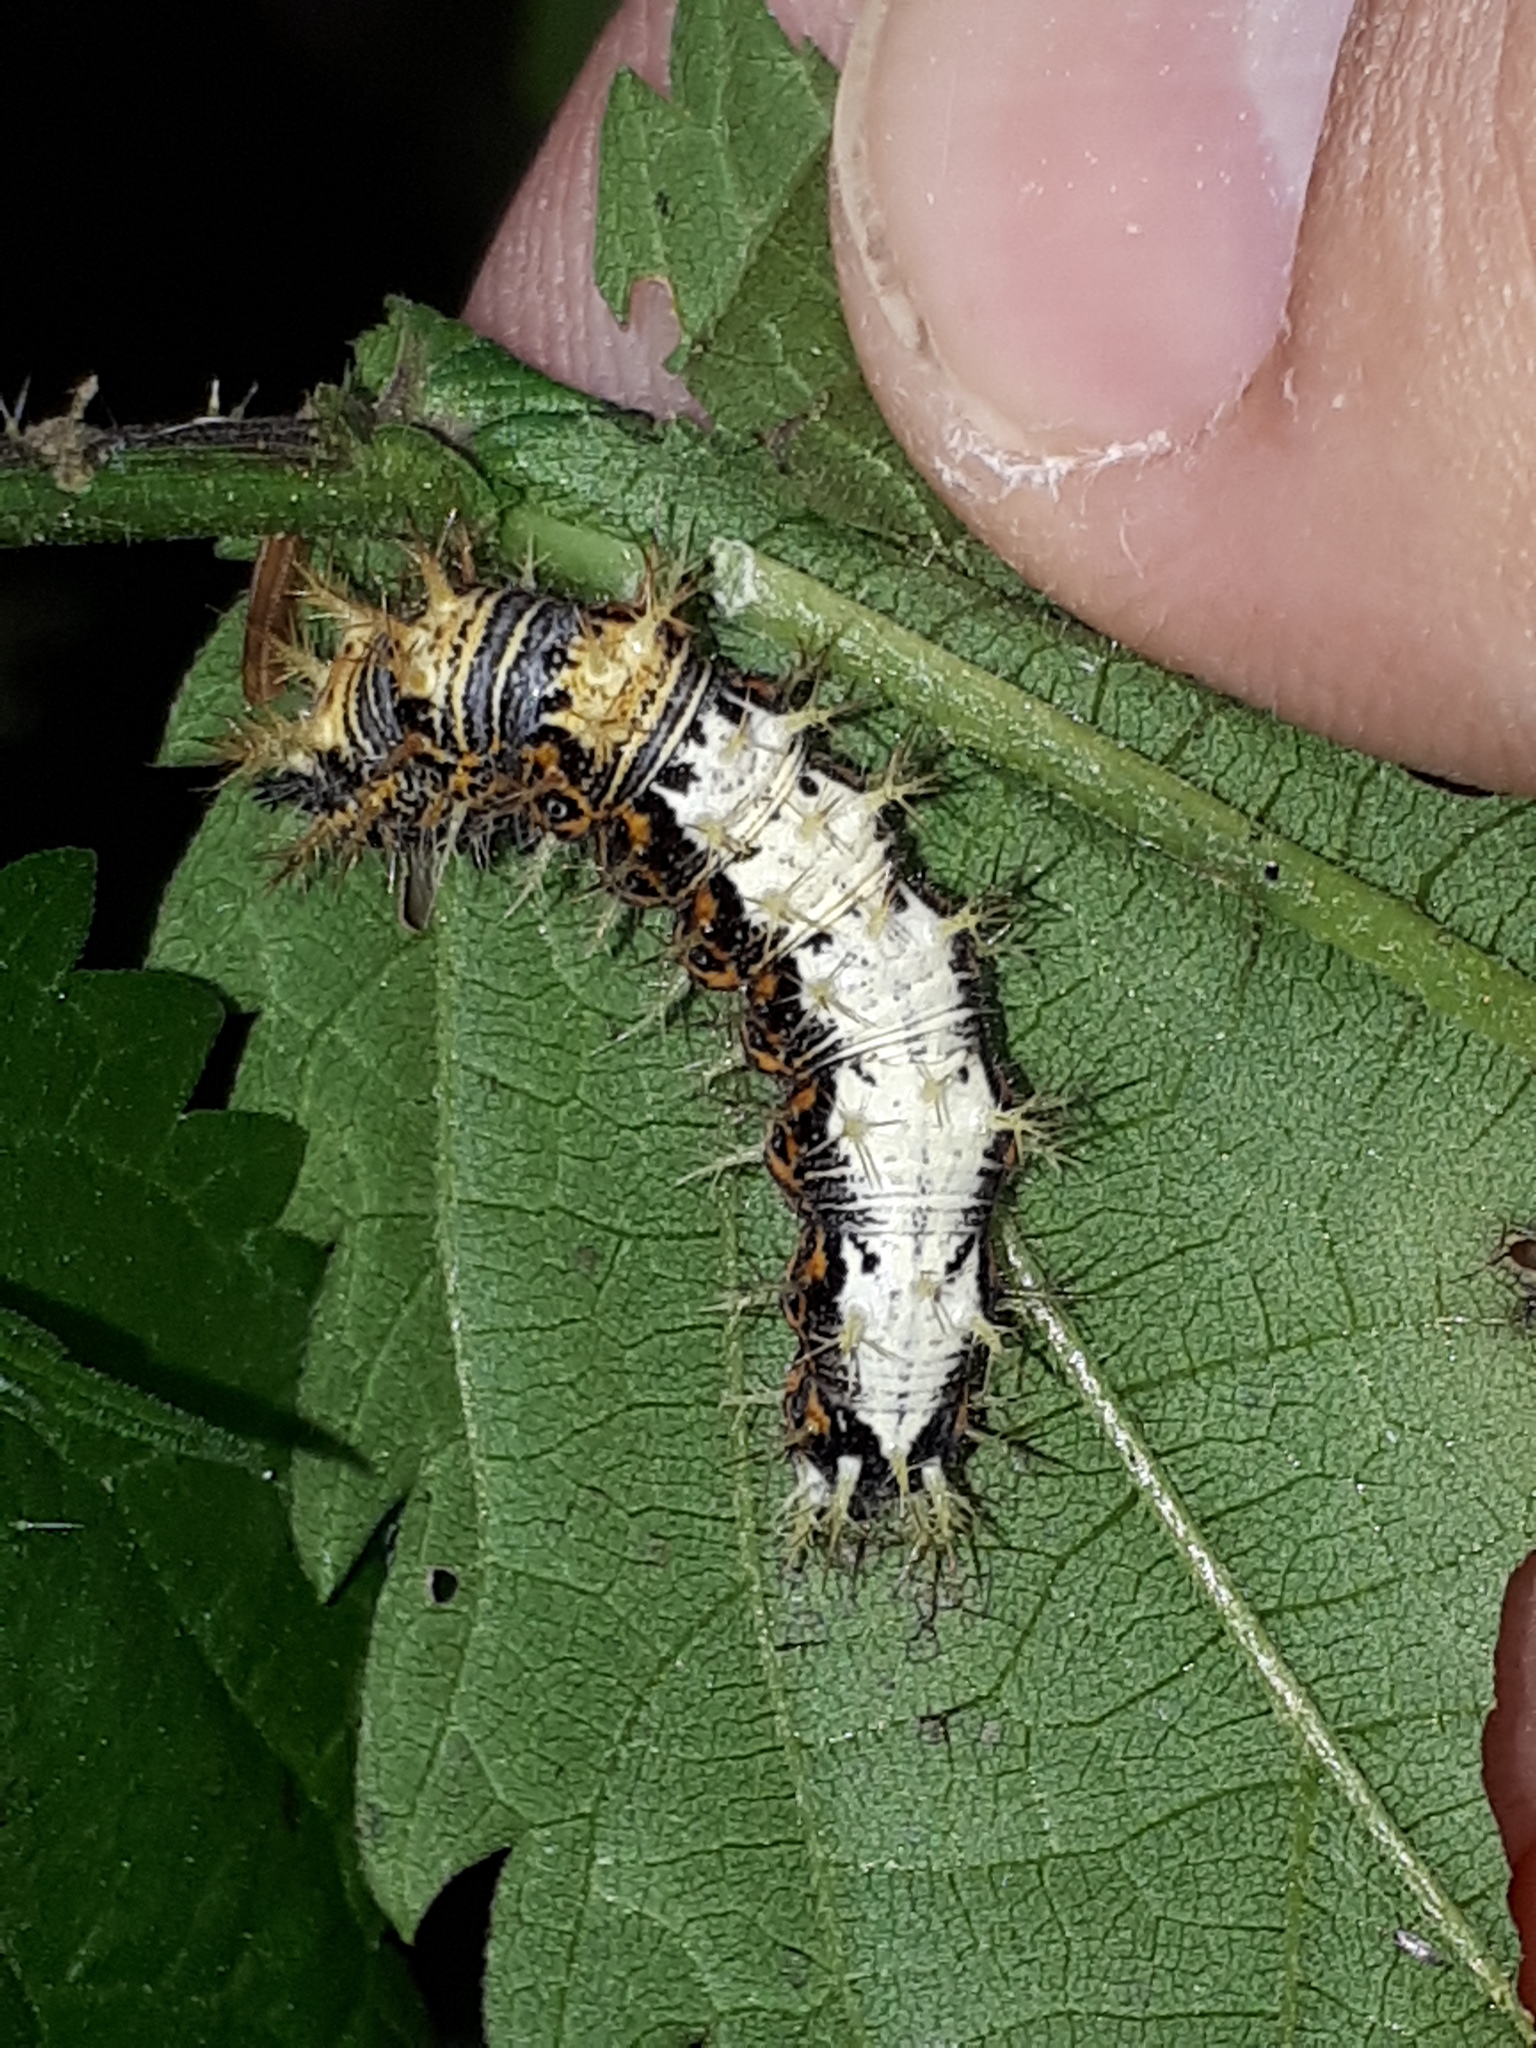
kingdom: Animalia
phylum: Arthropoda
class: Insecta
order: Lepidoptera
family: Nymphalidae
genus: Polygonia
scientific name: Polygonia c-album
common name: Comma
